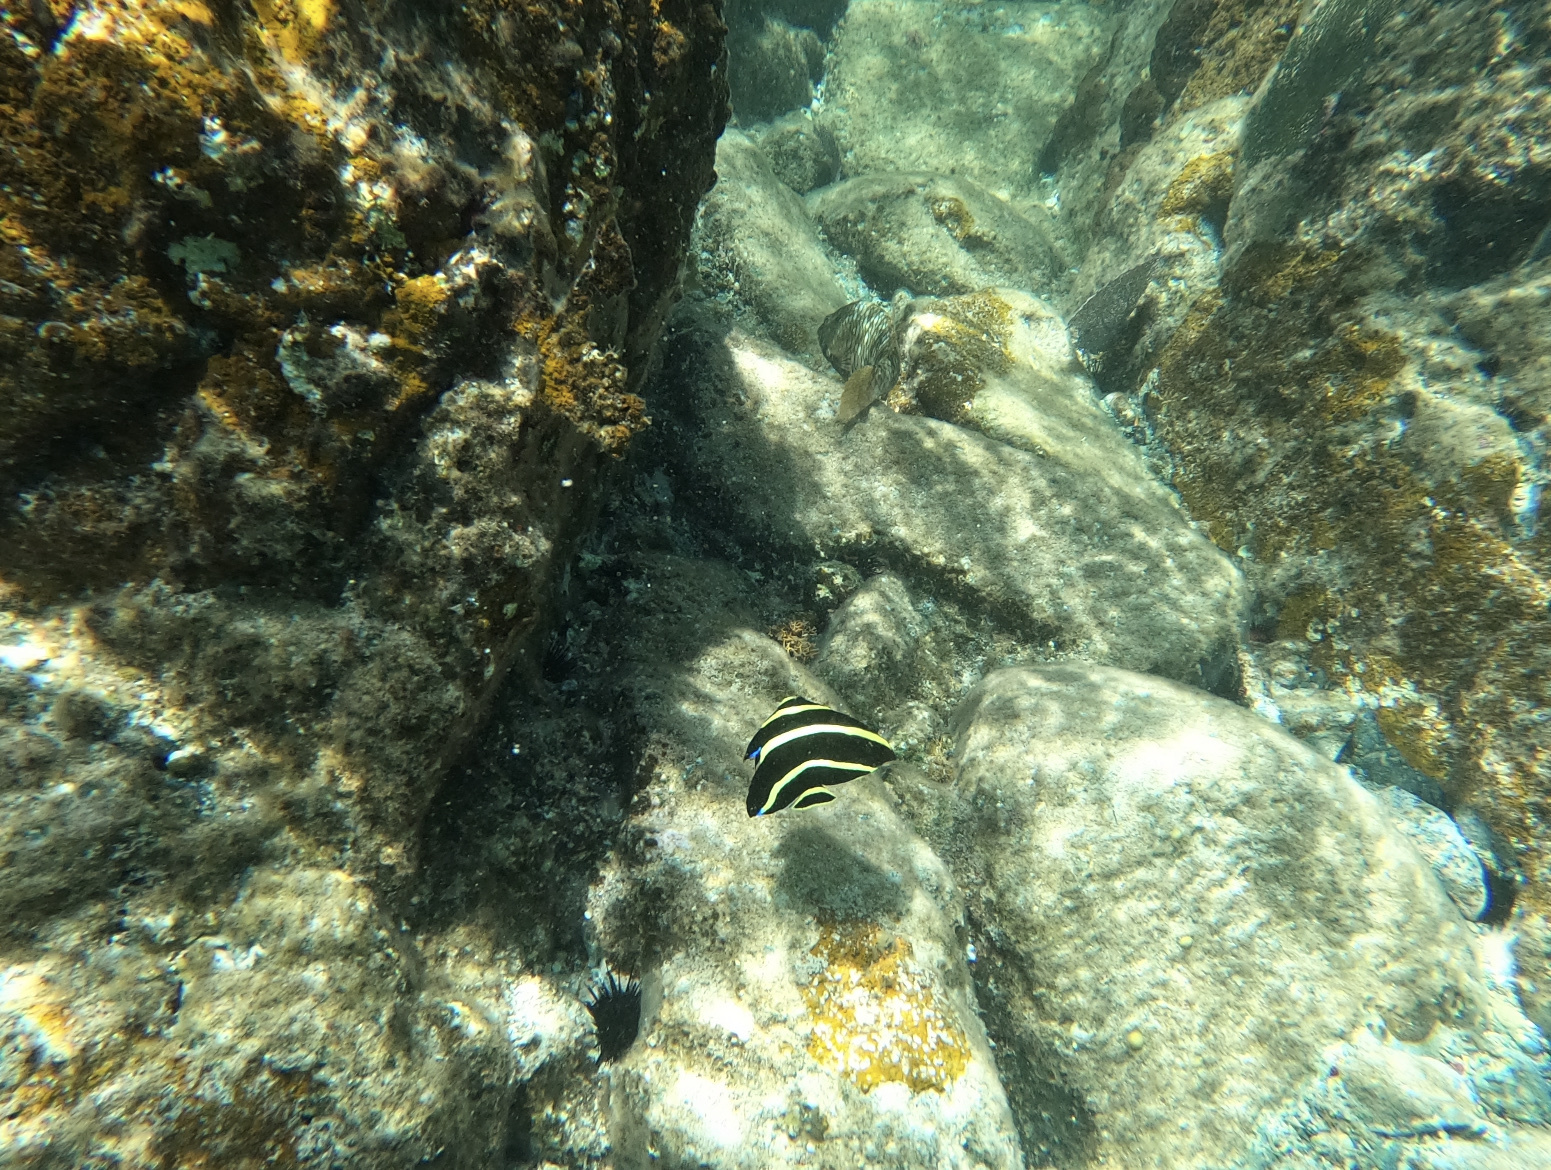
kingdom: Animalia
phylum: Chordata
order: Perciformes
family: Pomacanthidae
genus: Pomacanthus
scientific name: Pomacanthus paru
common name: French angelfish
